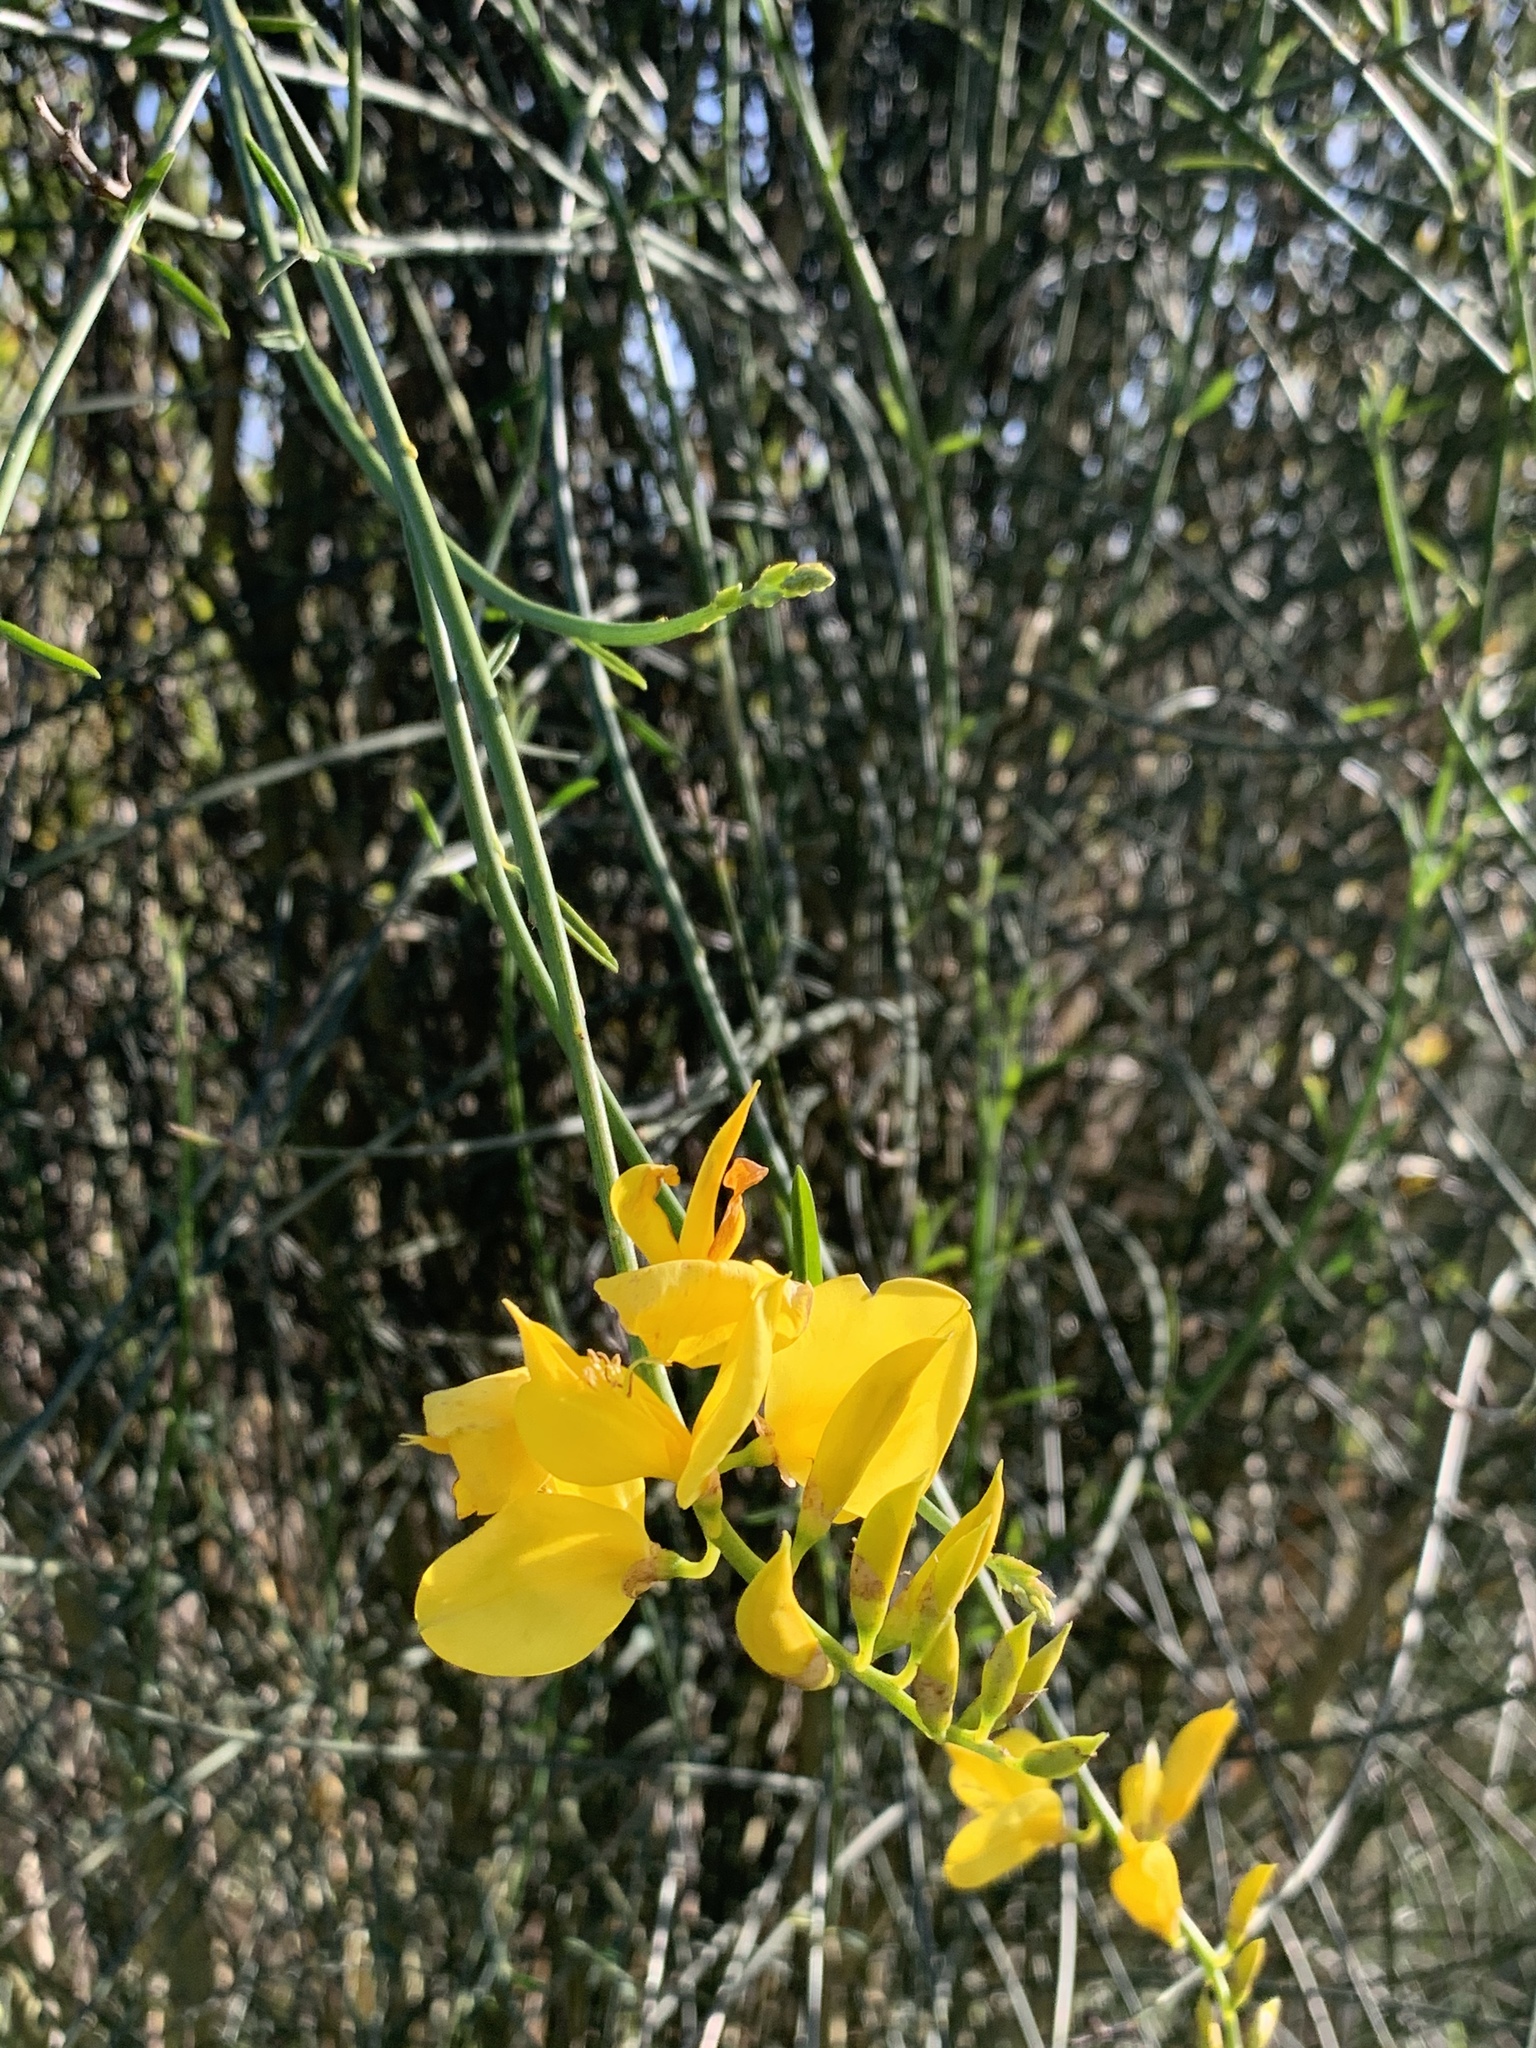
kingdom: Plantae
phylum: Tracheophyta
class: Magnoliopsida
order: Fabales
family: Fabaceae
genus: Spartium
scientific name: Spartium junceum
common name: Spanish broom
